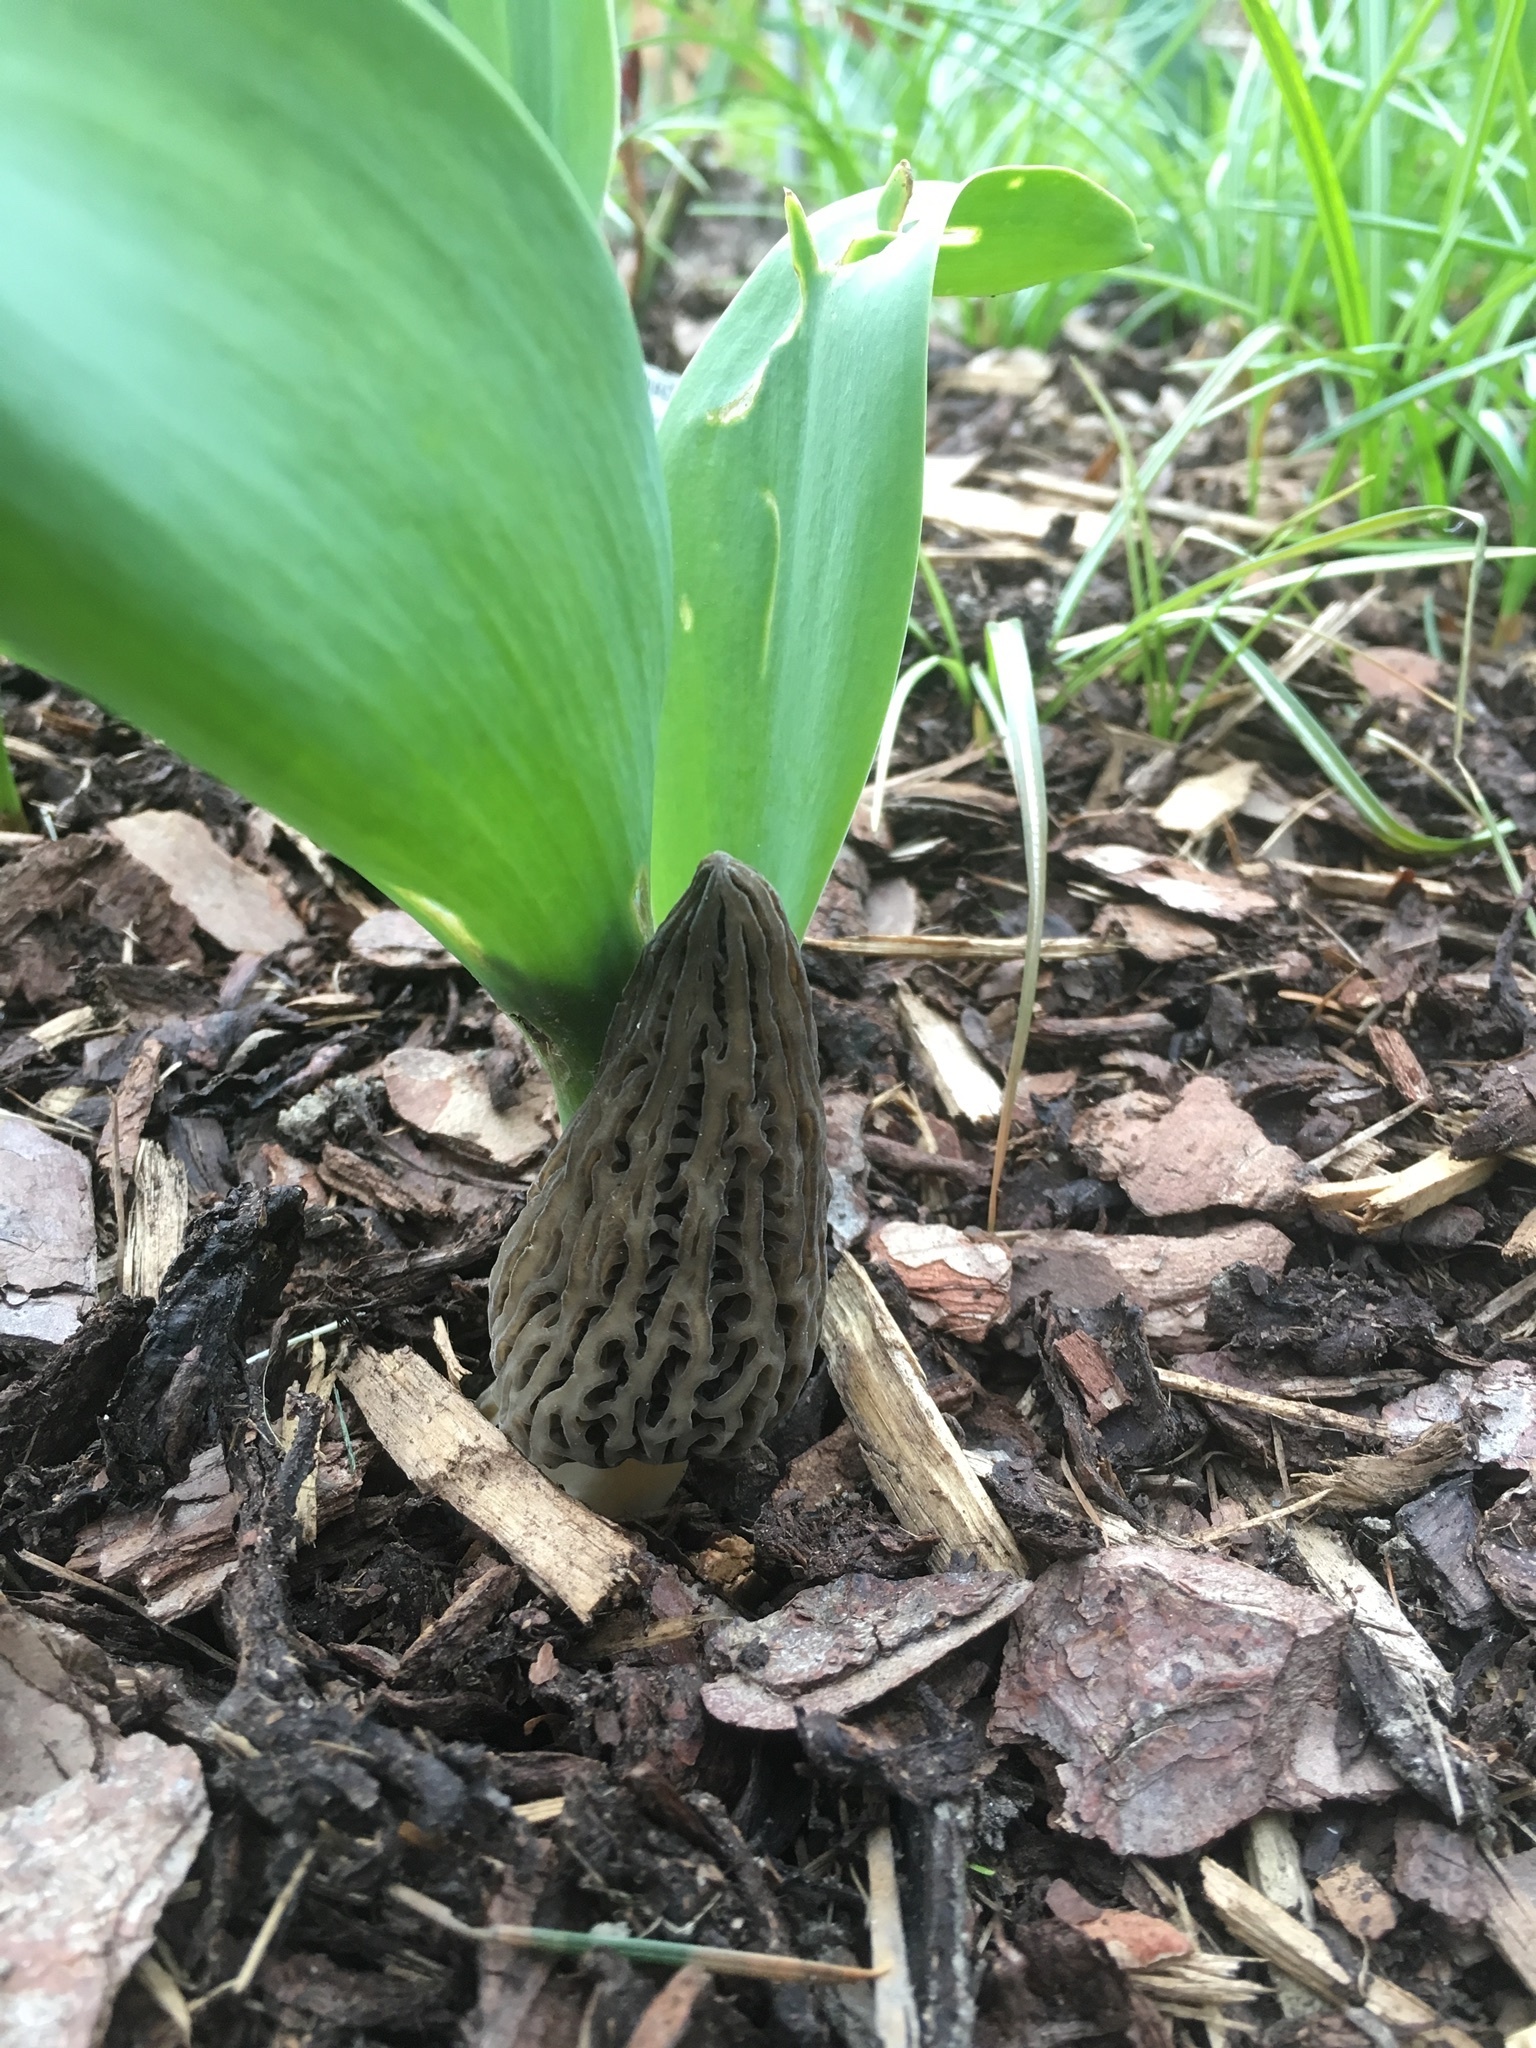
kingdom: Fungi
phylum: Ascomycota
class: Pezizomycetes
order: Pezizales
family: Morchellaceae
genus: Morchella
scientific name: Morchella importuna
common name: Landscaping black morel
